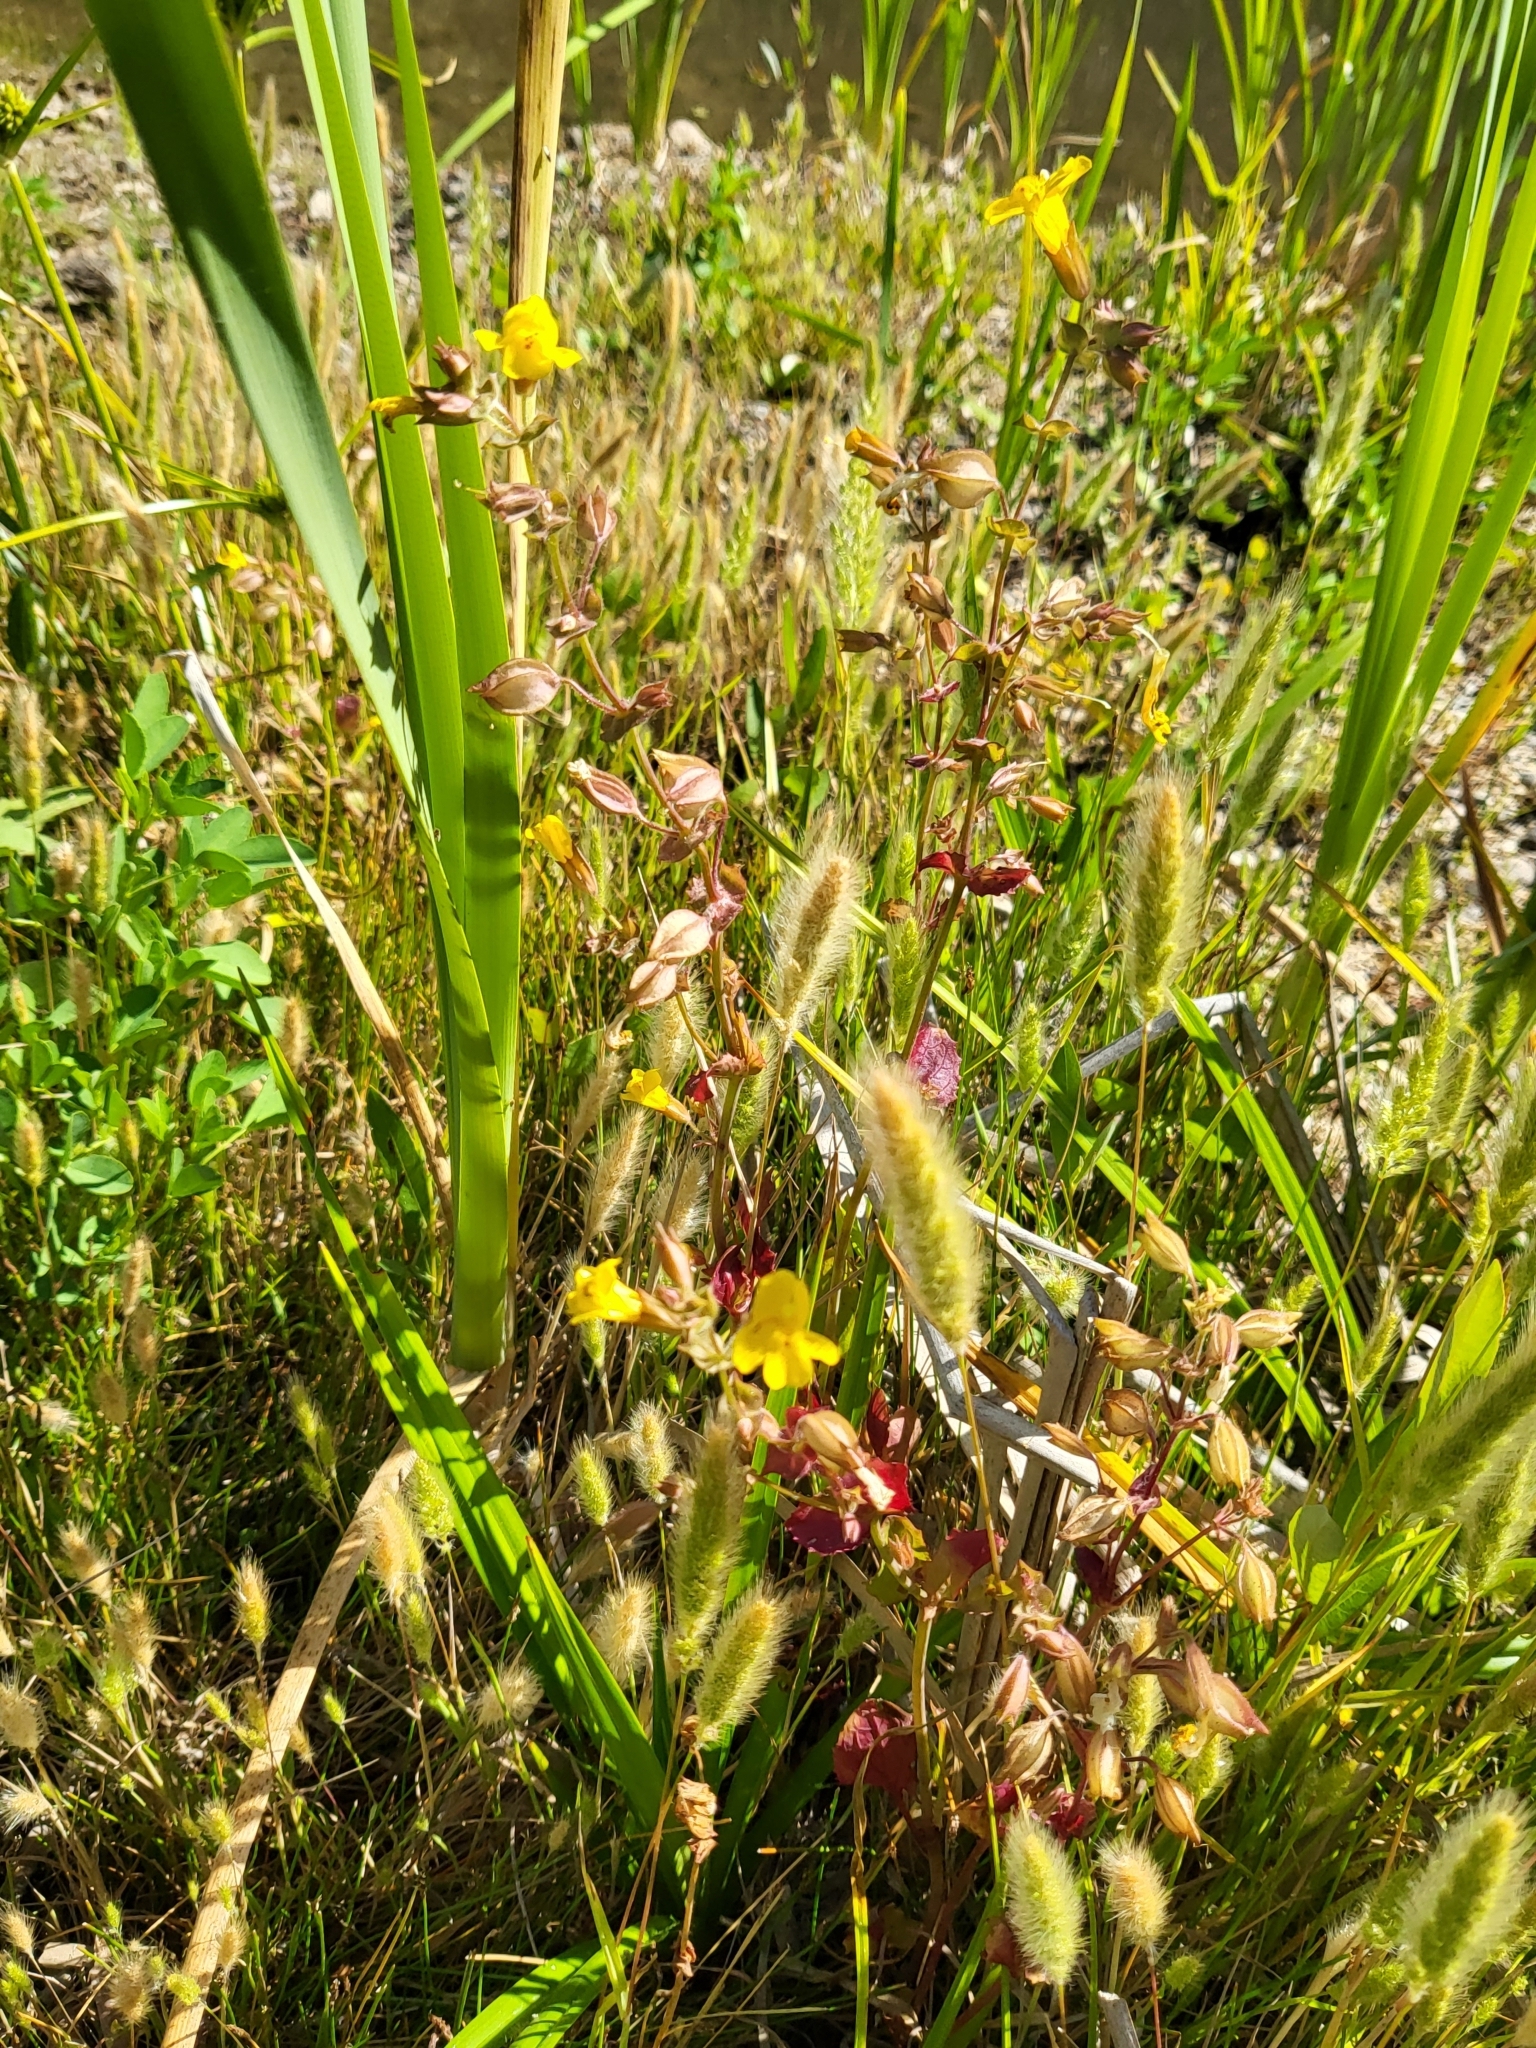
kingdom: Plantae
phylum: Tracheophyta
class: Magnoliopsida
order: Lamiales
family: Phrymaceae
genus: Erythranthe
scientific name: Erythranthe guttata
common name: Monkeyflower
